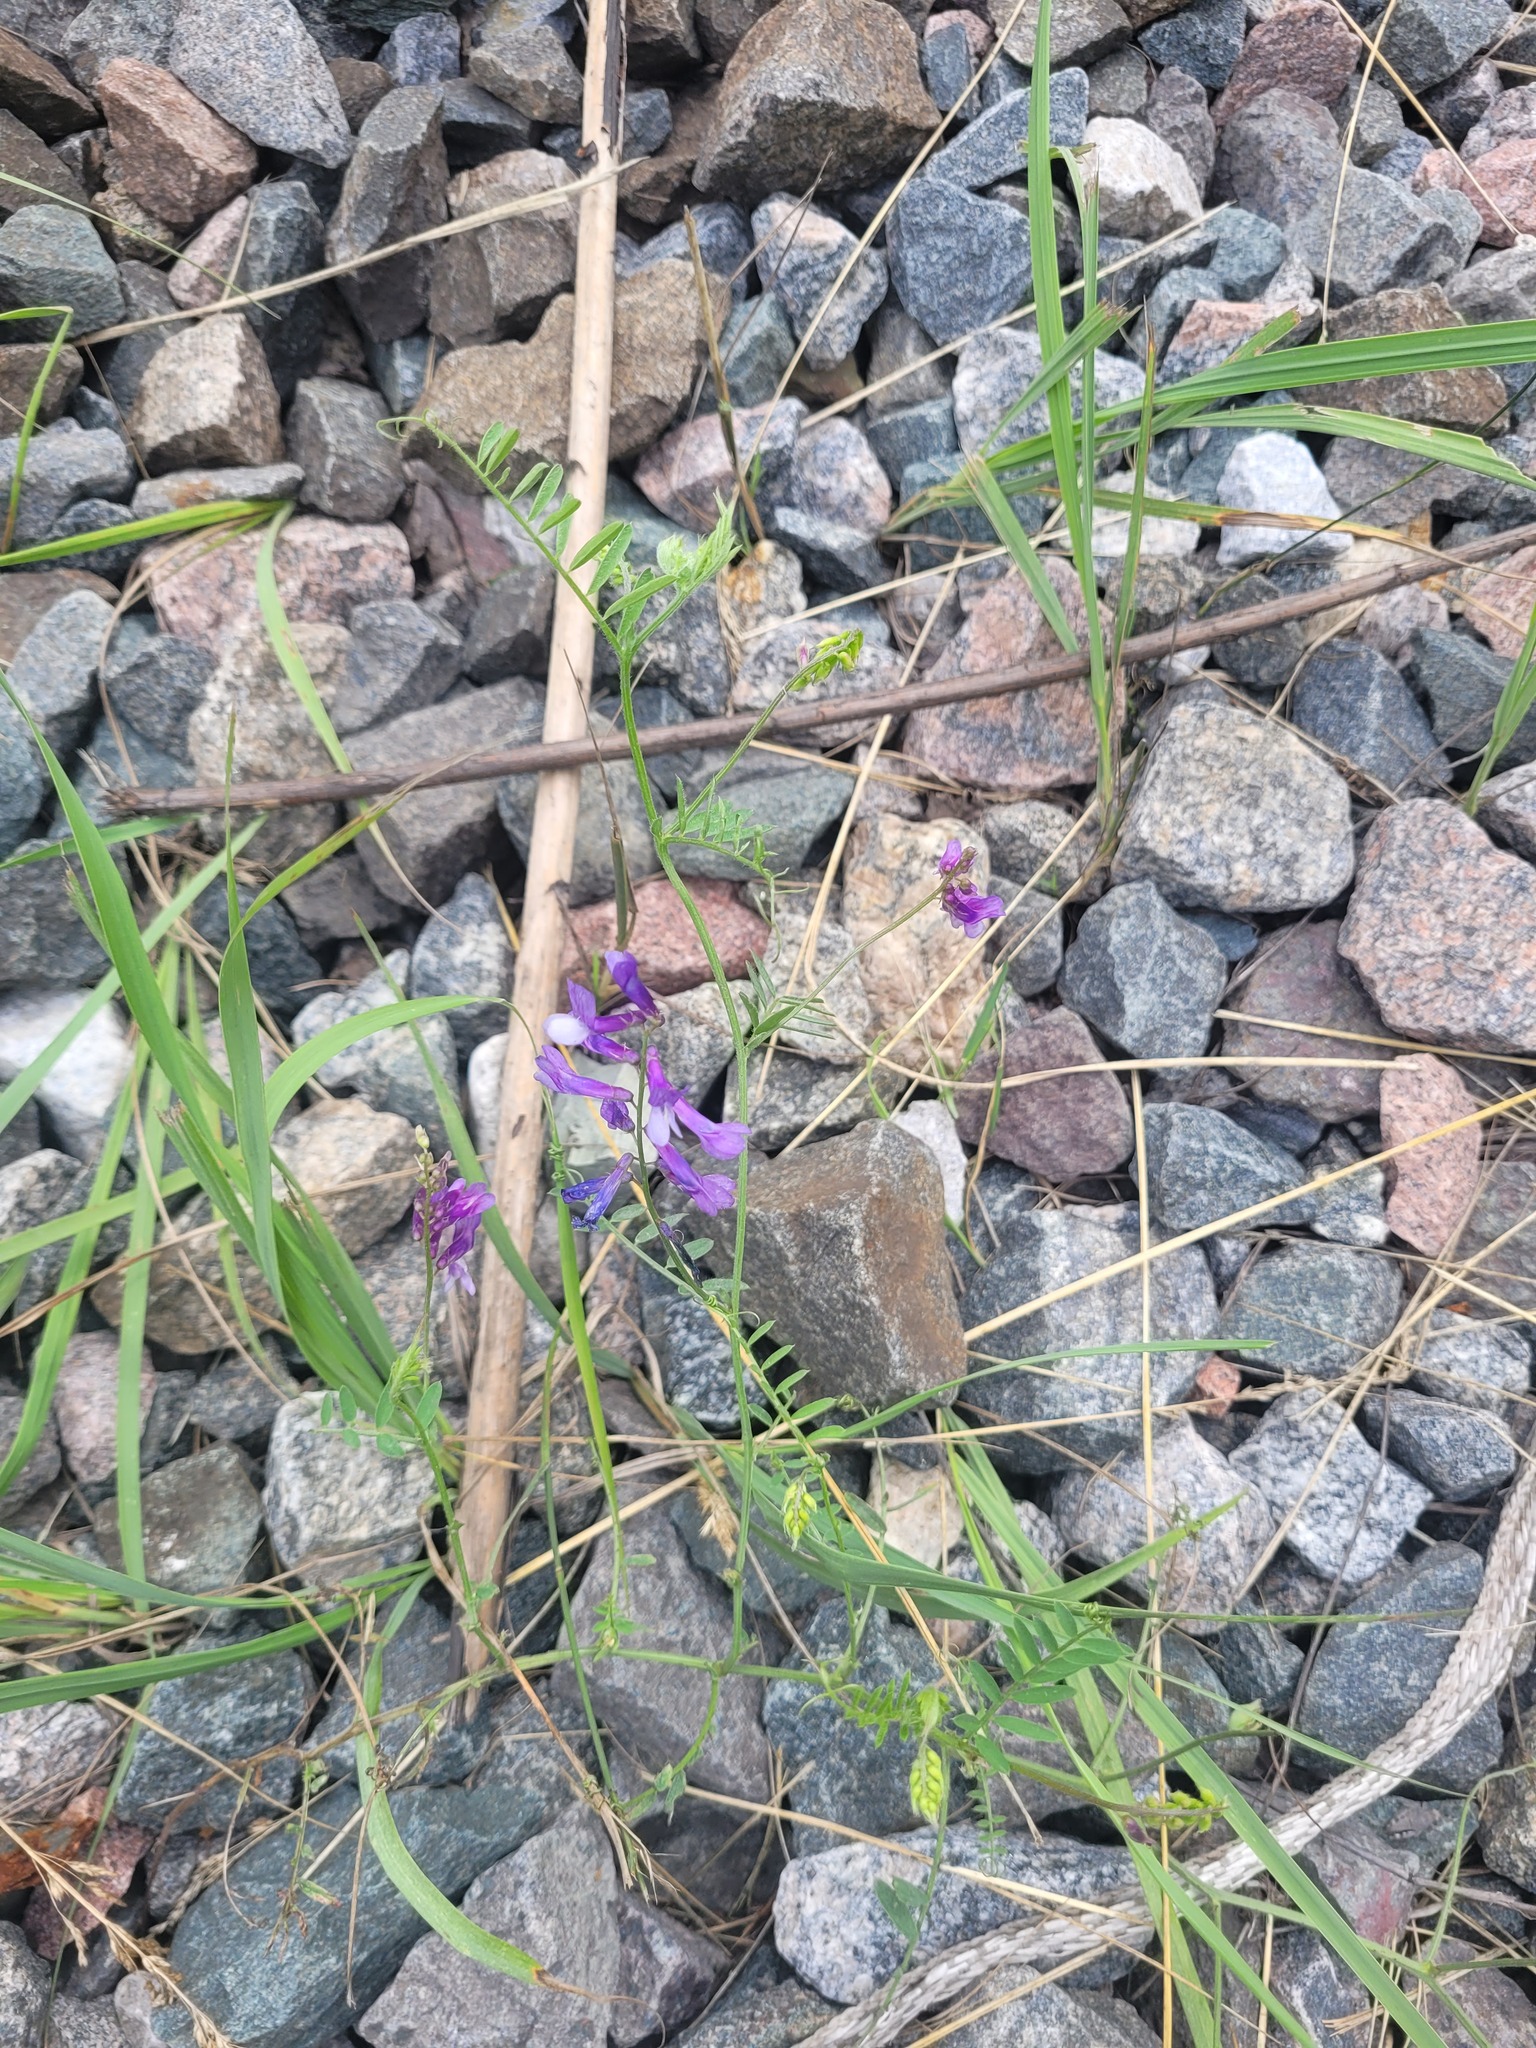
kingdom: Plantae
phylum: Tracheophyta
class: Magnoliopsida
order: Fabales
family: Fabaceae
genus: Vicia
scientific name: Vicia villosa
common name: Fodder vetch
